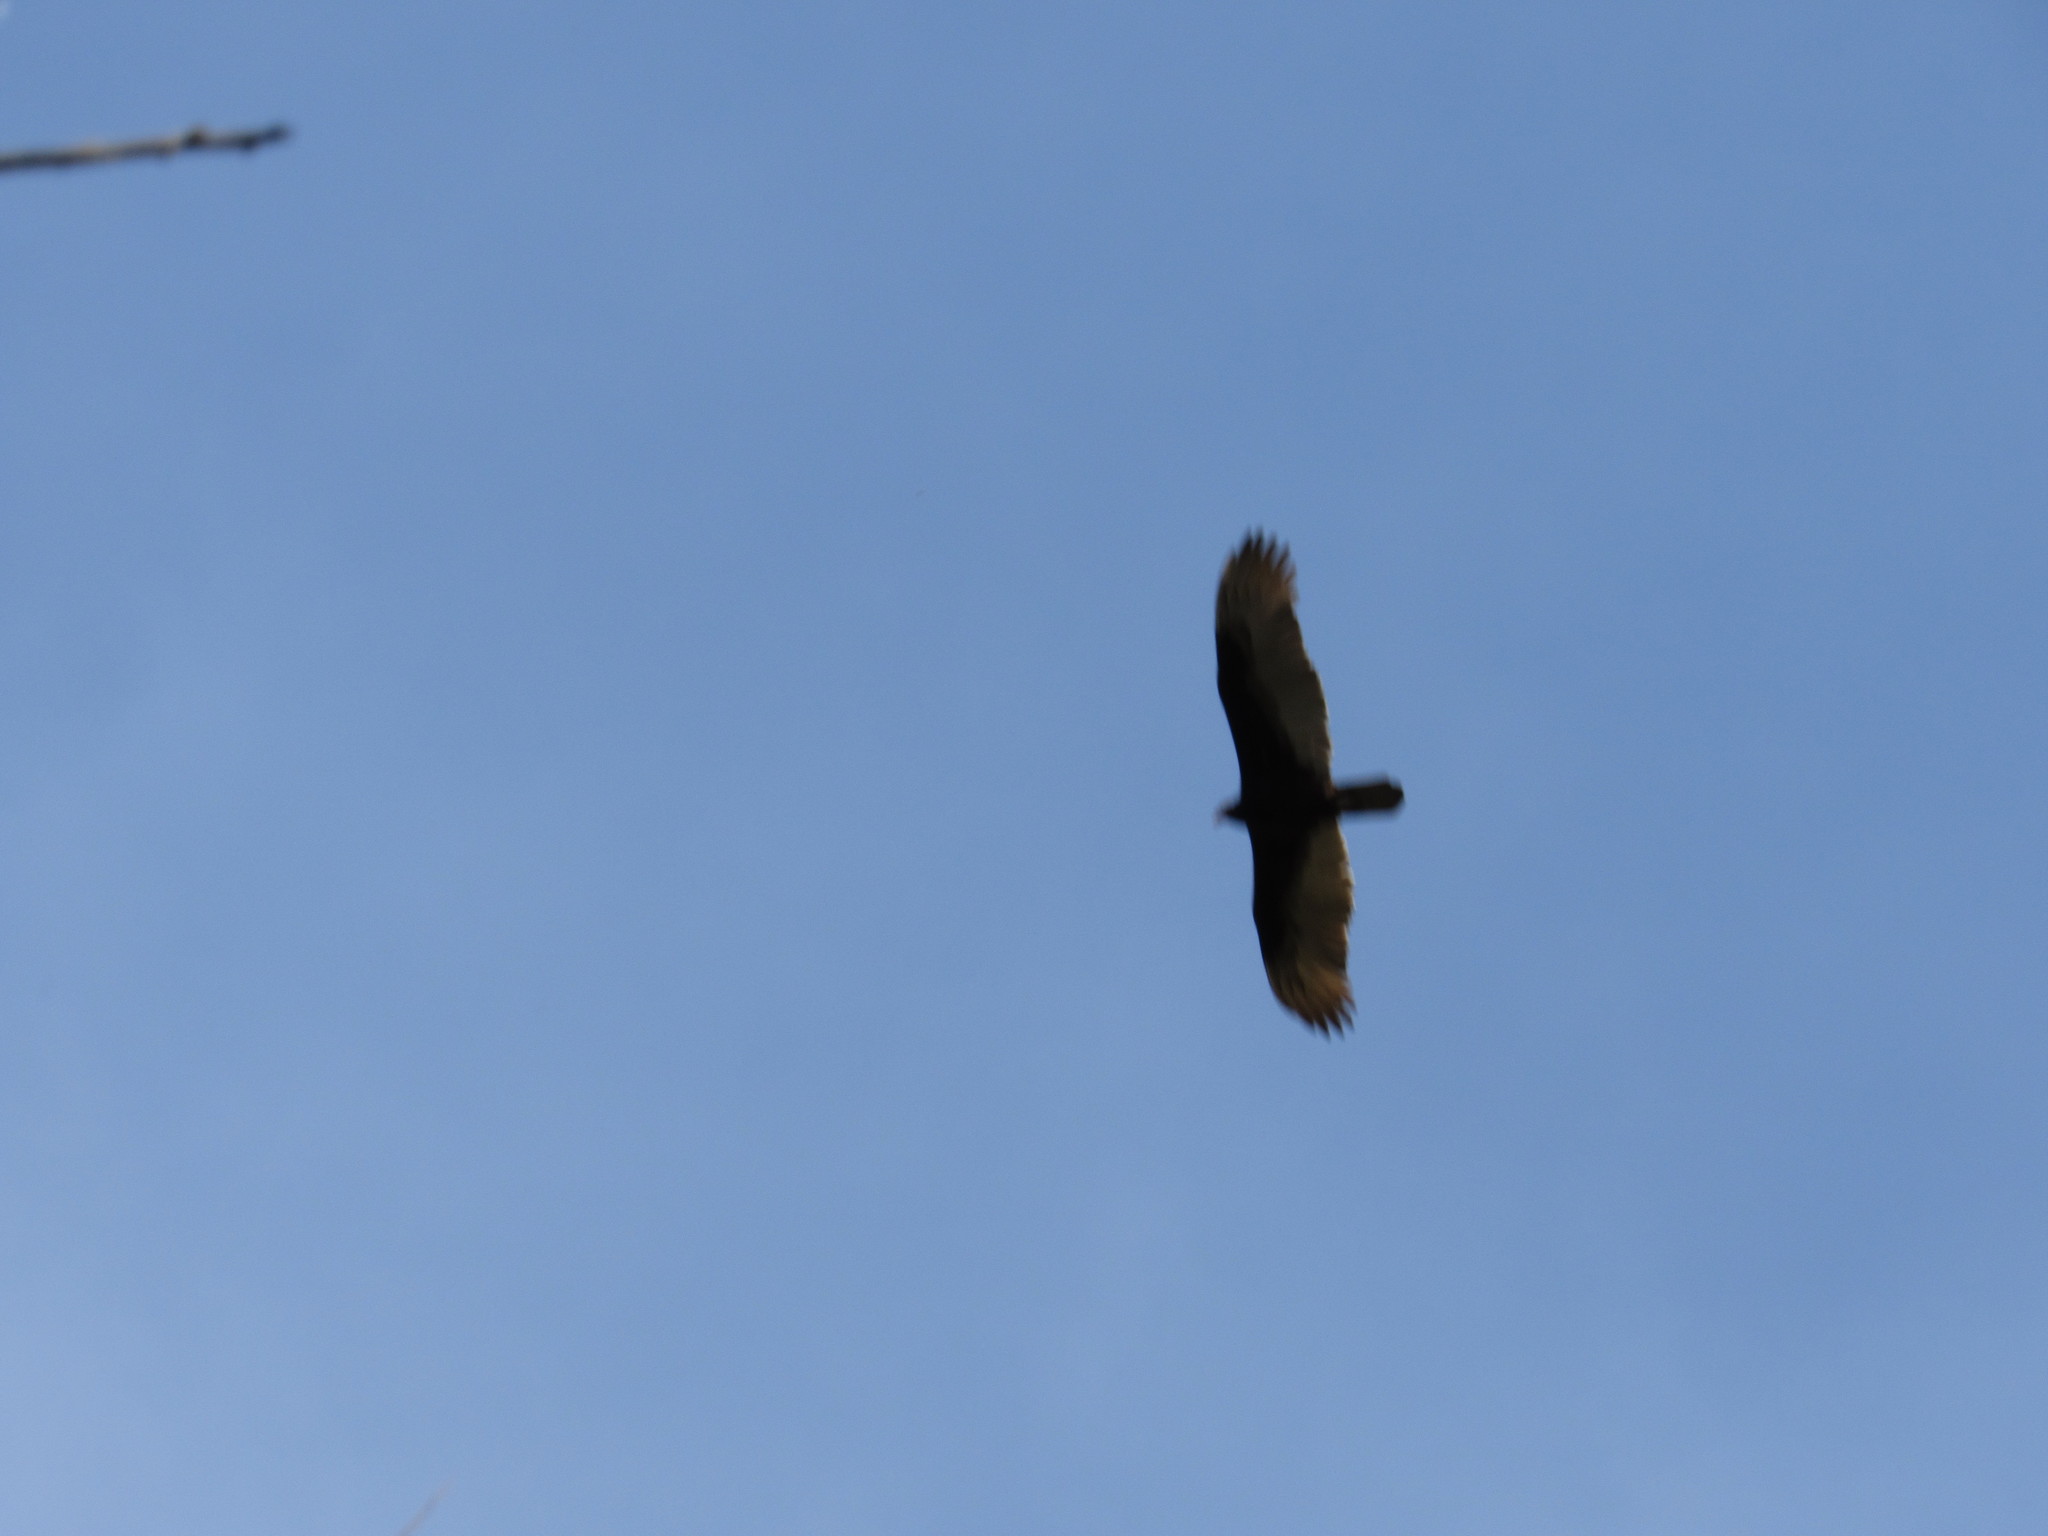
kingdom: Animalia
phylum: Chordata
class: Aves
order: Accipitriformes
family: Cathartidae
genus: Cathartes
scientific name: Cathartes aura
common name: Turkey vulture
